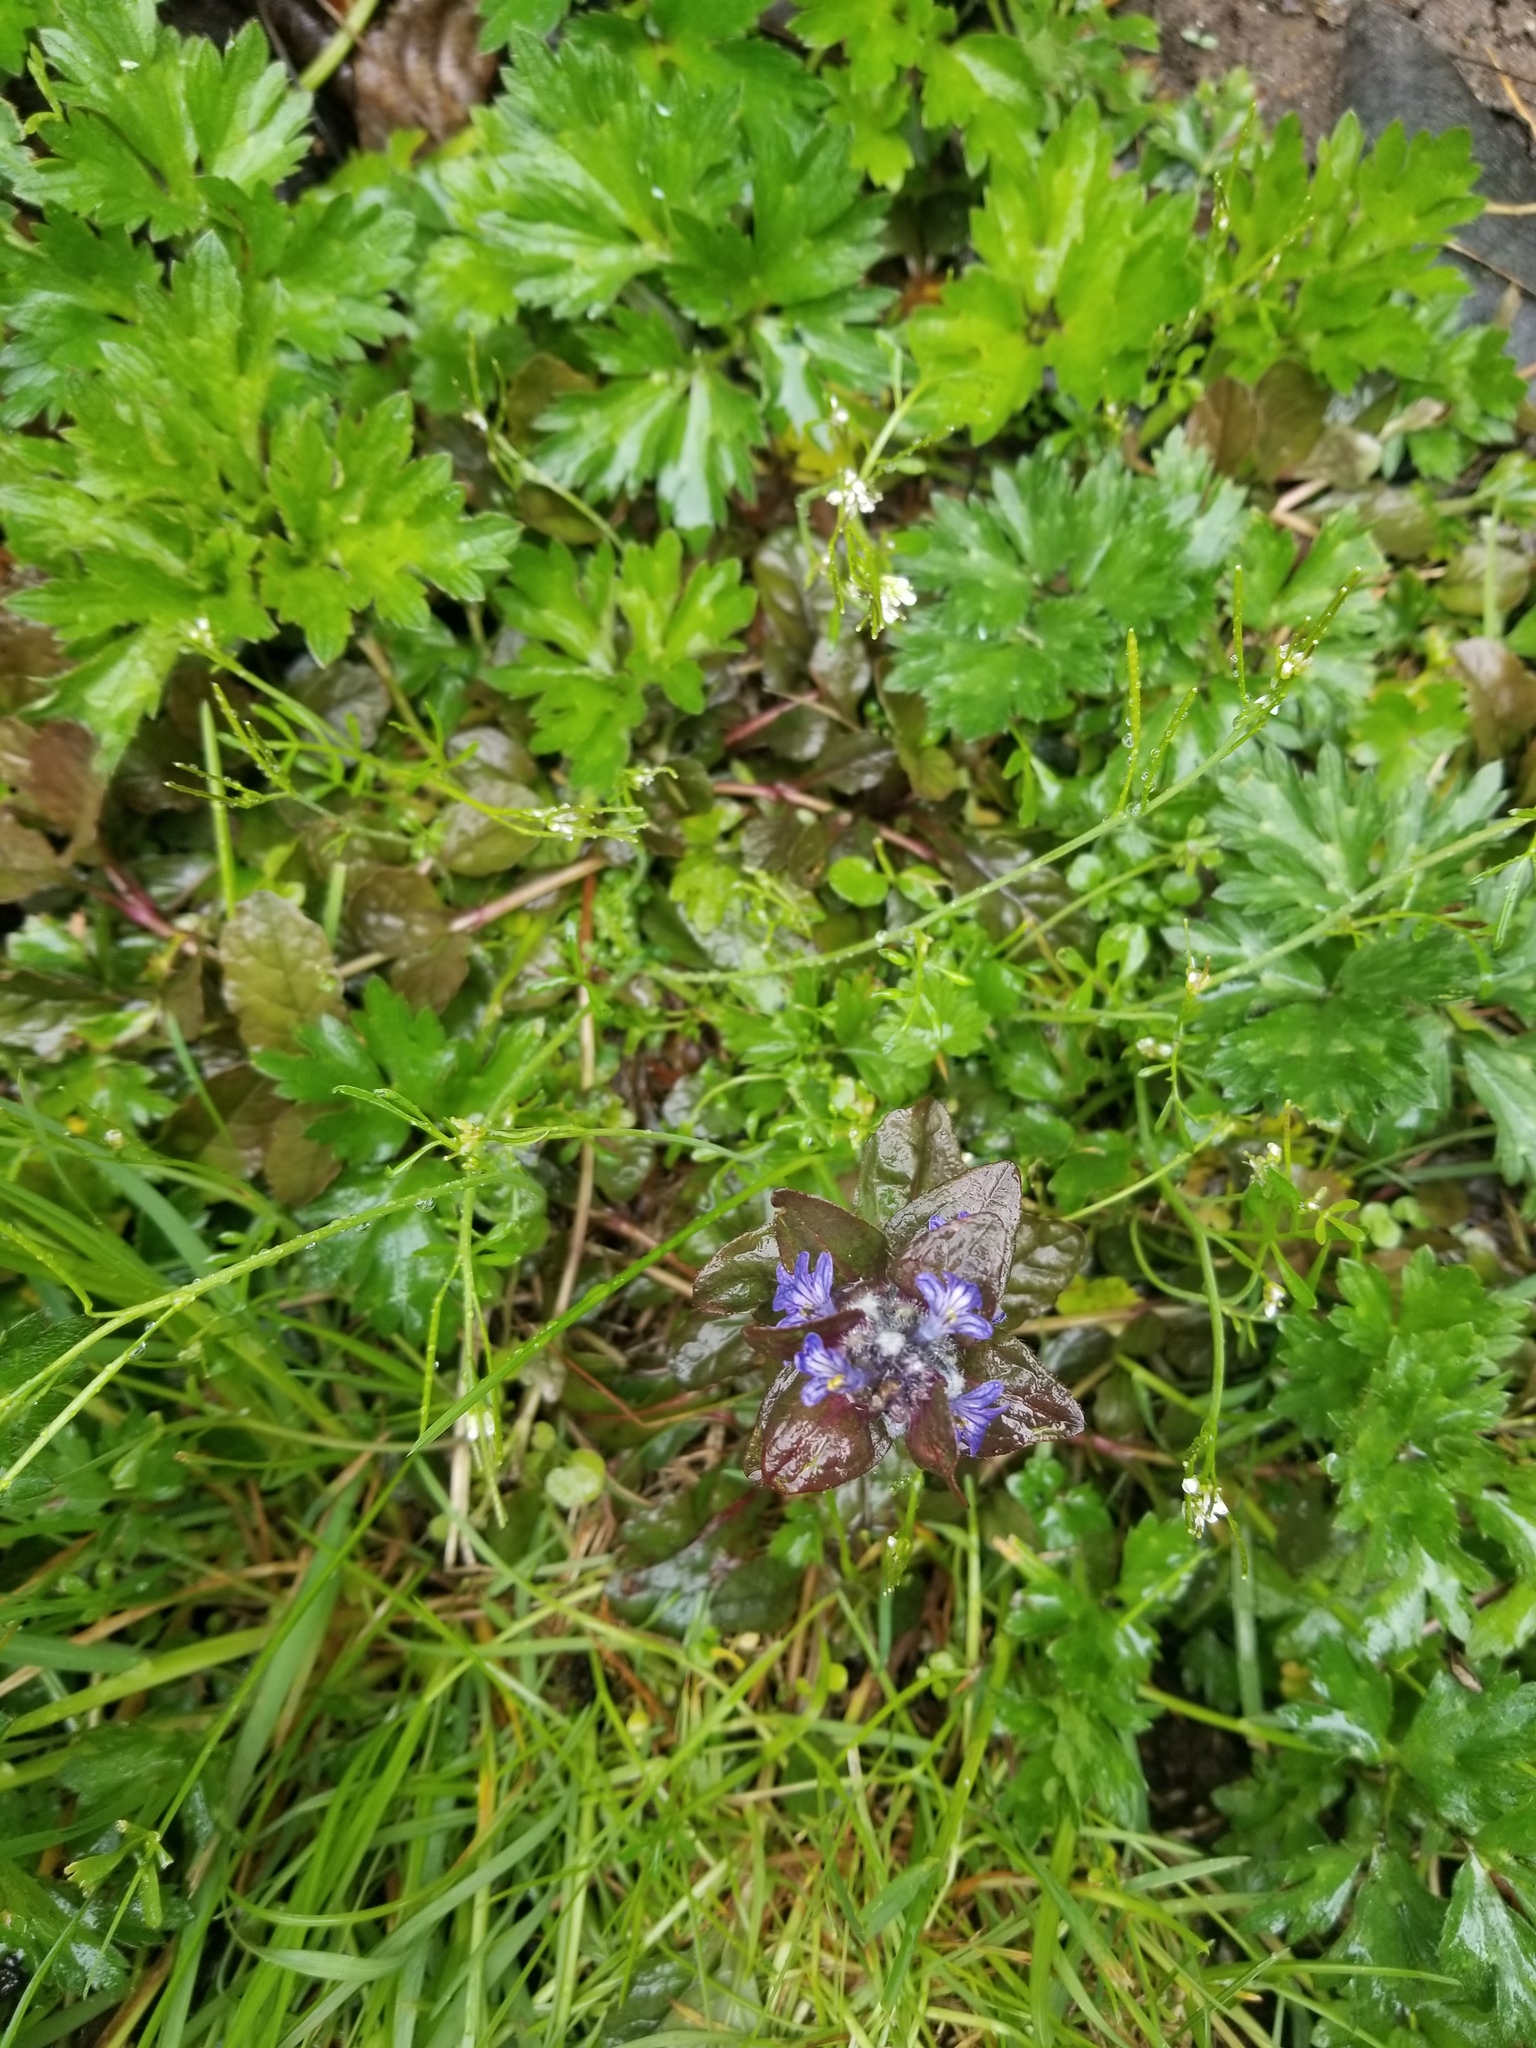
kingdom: Plantae
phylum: Tracheophyta
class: Magnoliopsida
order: Lamiales
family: Lamiaceae
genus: Ajuga
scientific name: Ajuga reptans
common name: Bugle
